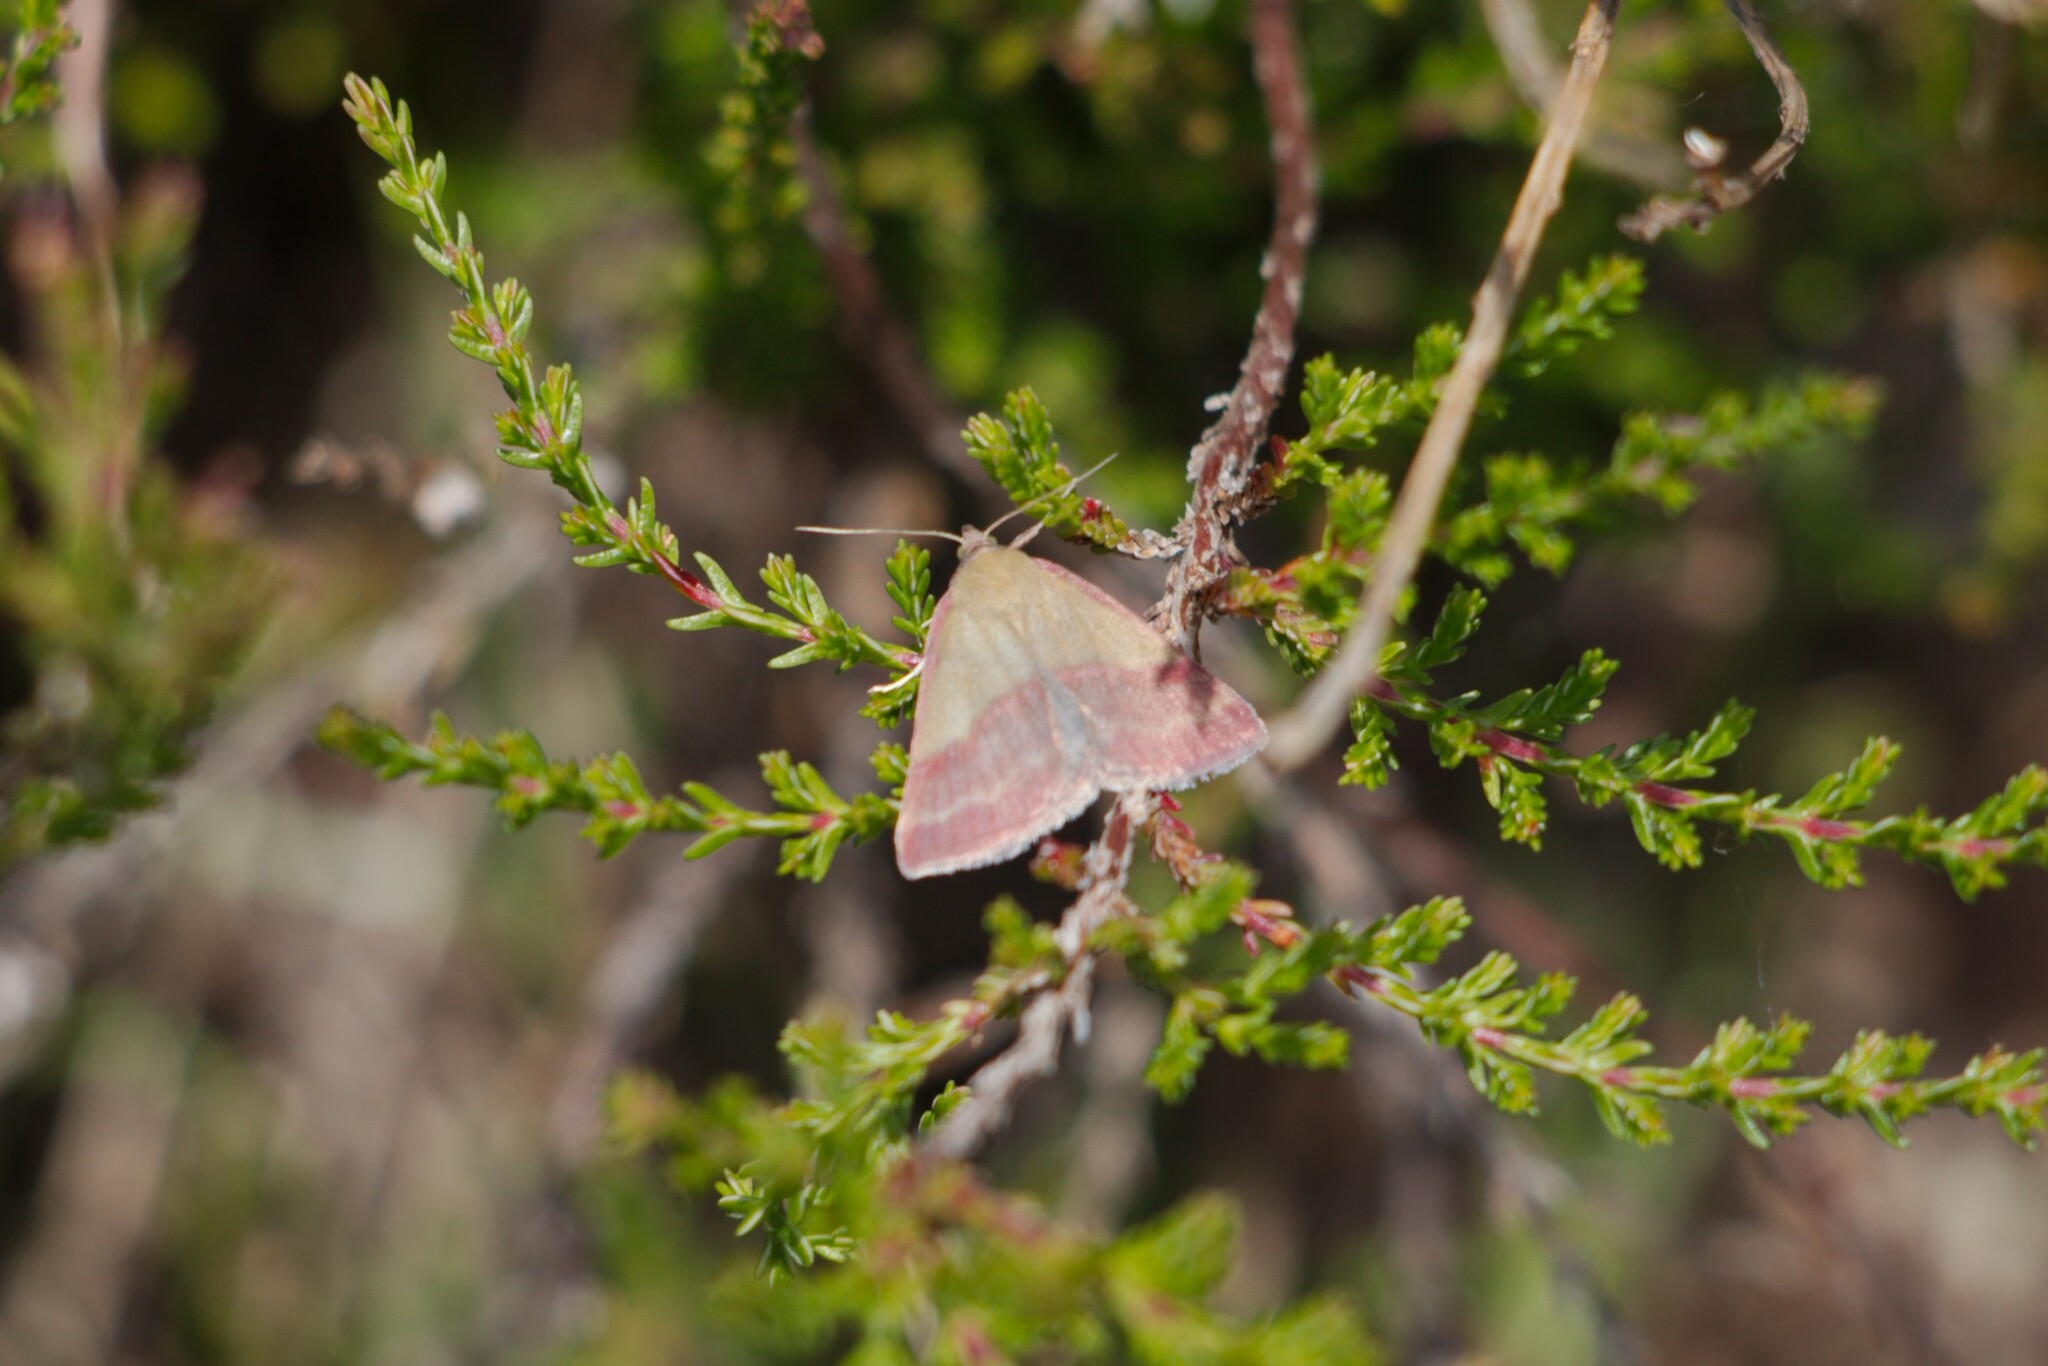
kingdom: Animalia
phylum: Arthropoda
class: Insecta
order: Lepidoptera
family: Erebidae
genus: Phytometra
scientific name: Phytometra viridaria
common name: Small purple-barred
